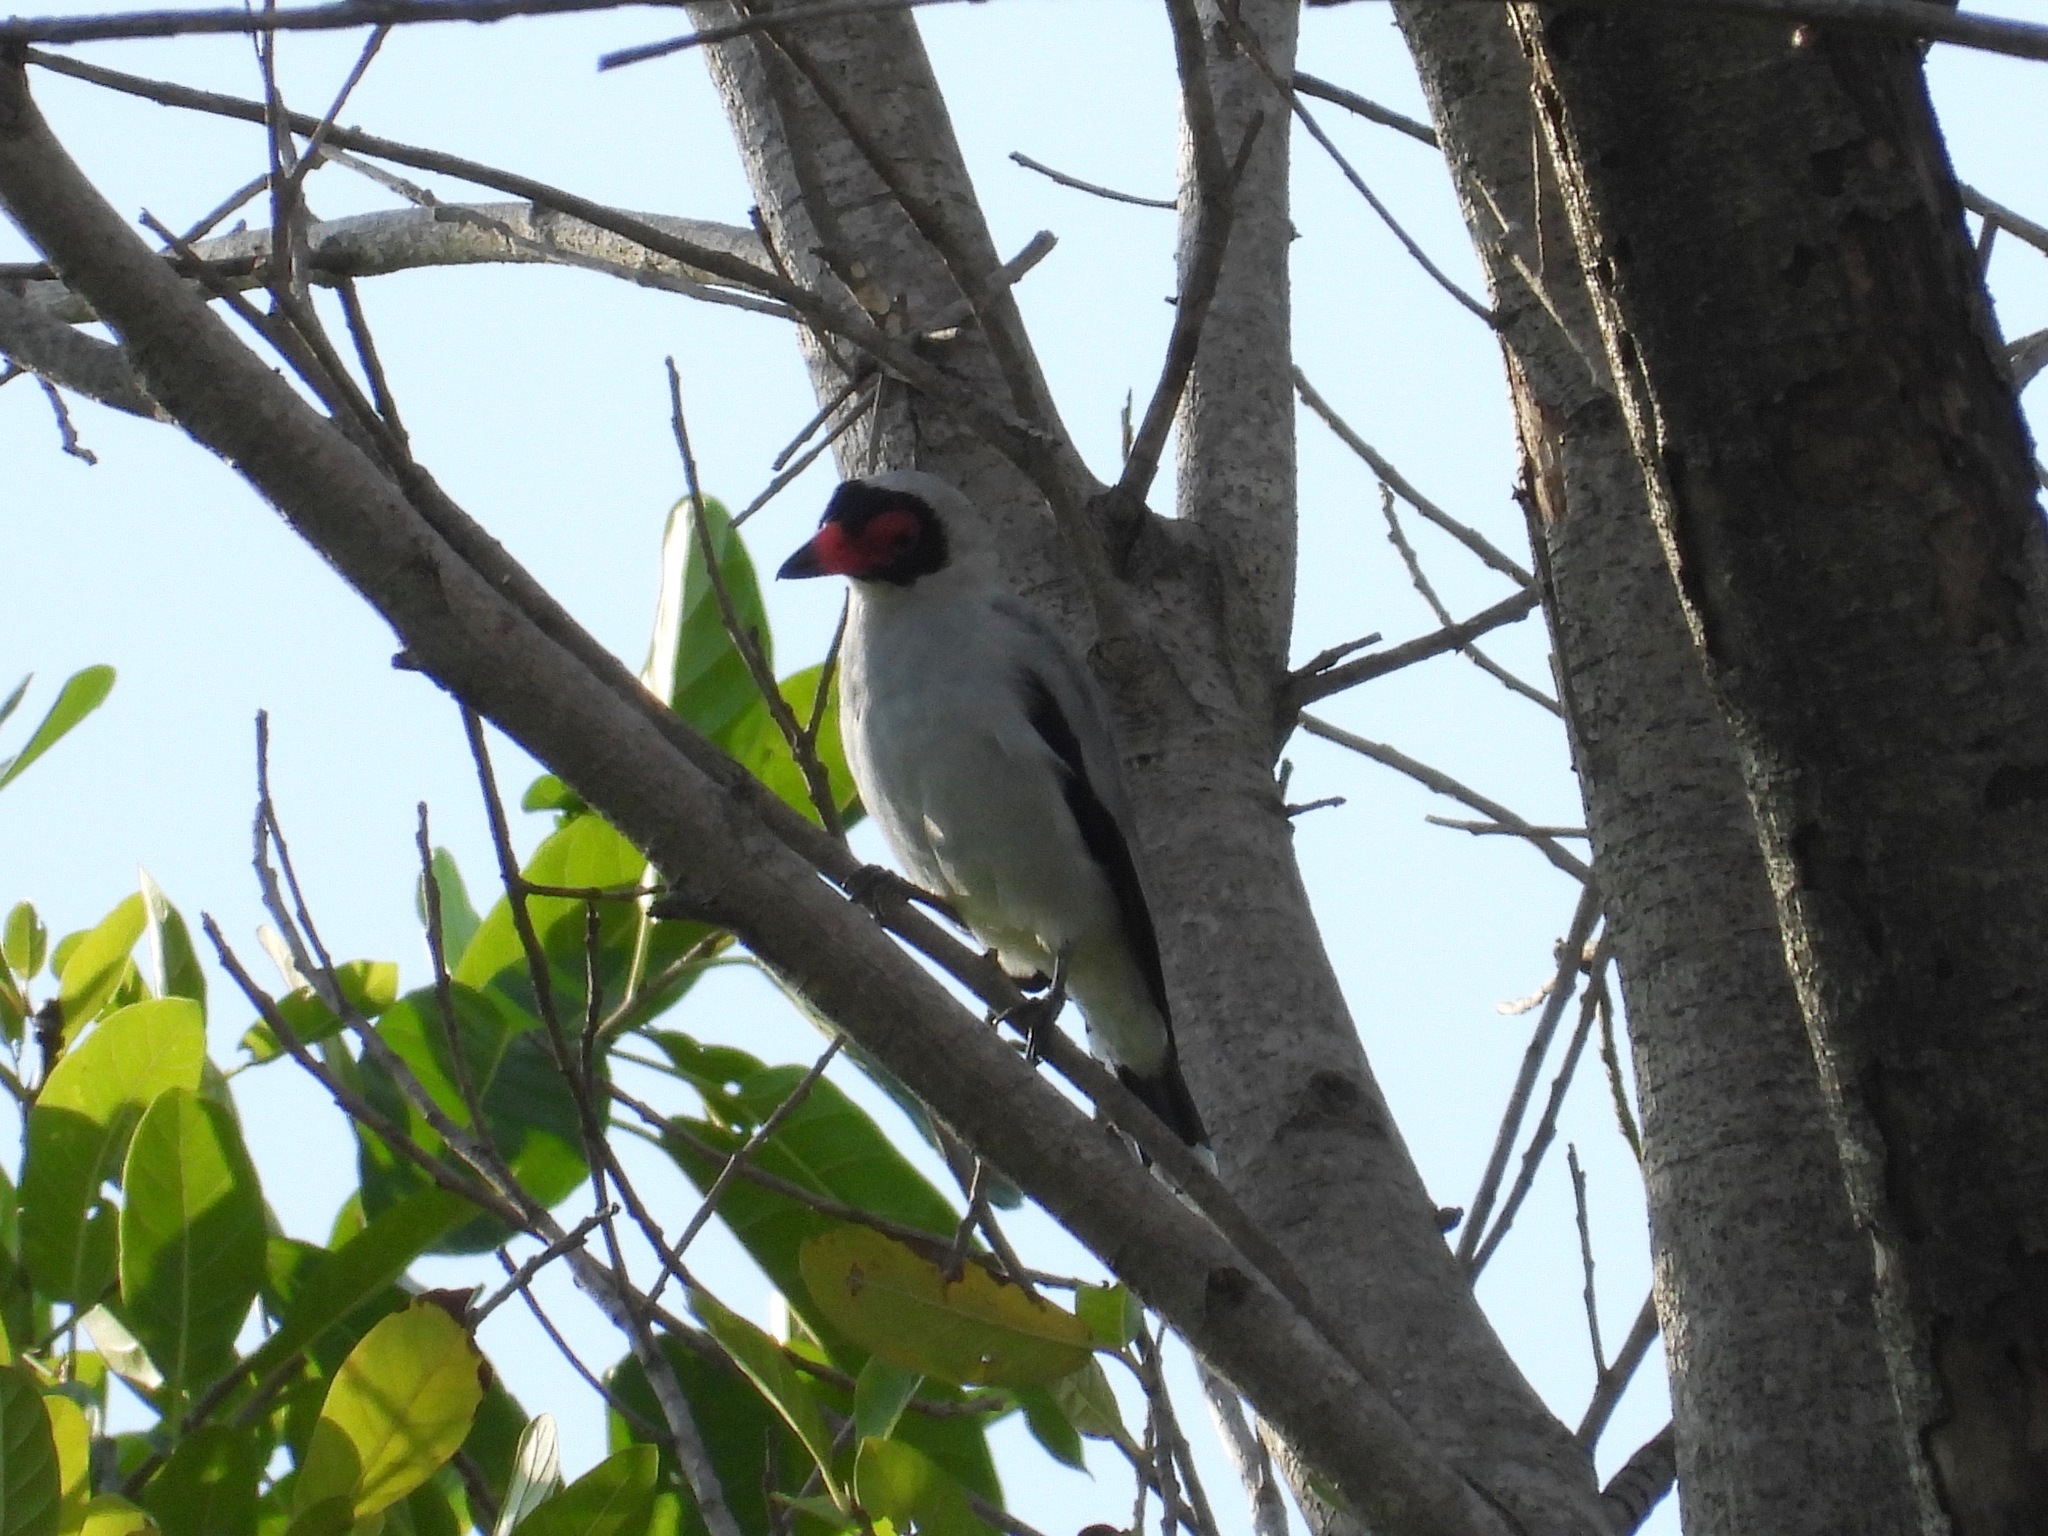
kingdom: Animalia
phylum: Chordata
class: Aves
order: Passeriformes
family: Cotingidae
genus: Tityra
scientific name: Tityra semifasciata
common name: Masked tityra
